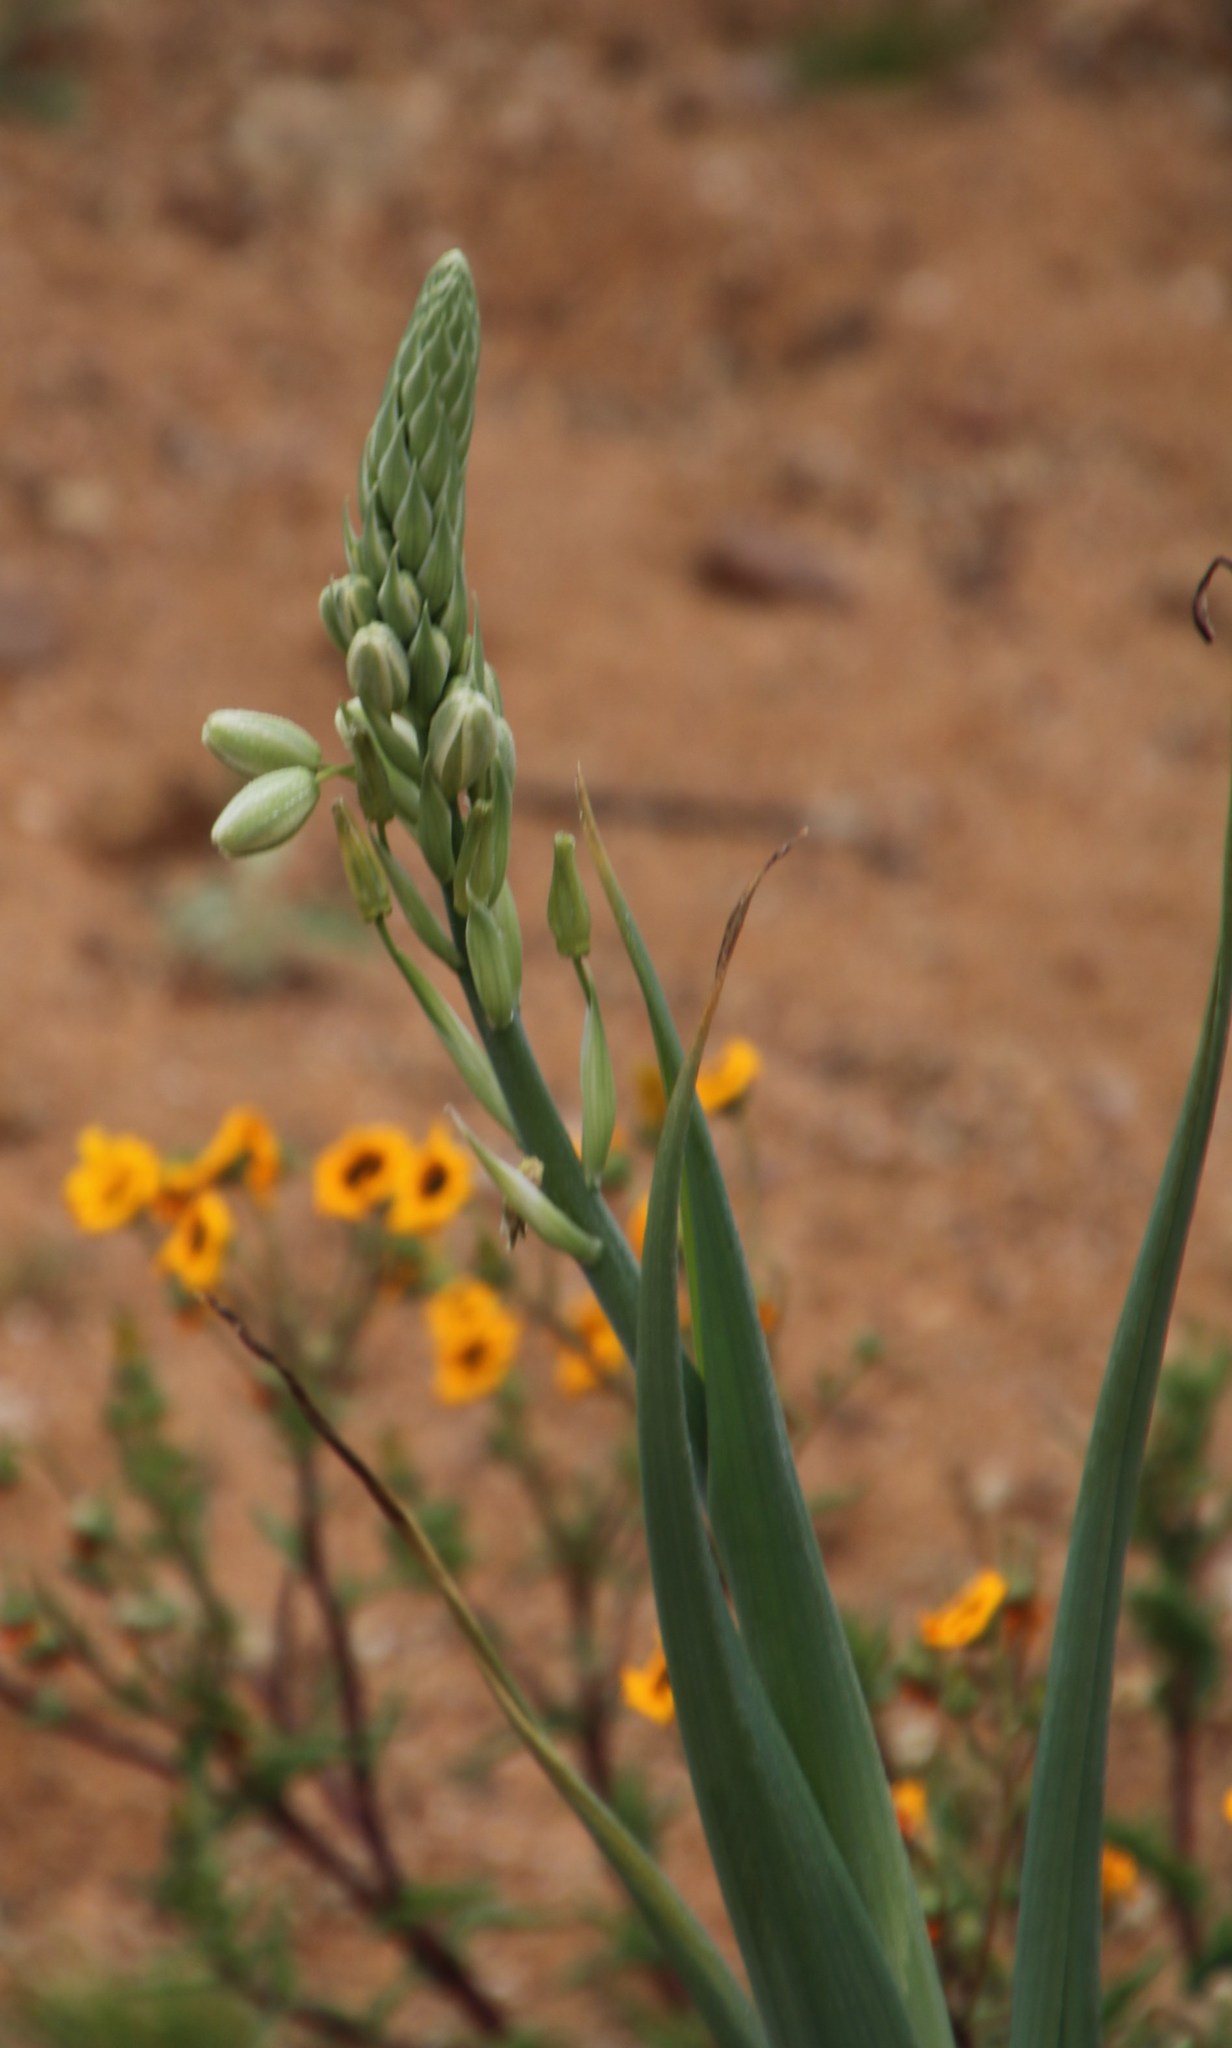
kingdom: Plantae
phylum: Tracheophyta
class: Liliopsida
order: Asparagales
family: Asparagaceae
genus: Albuca
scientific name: Albuca canadensis
